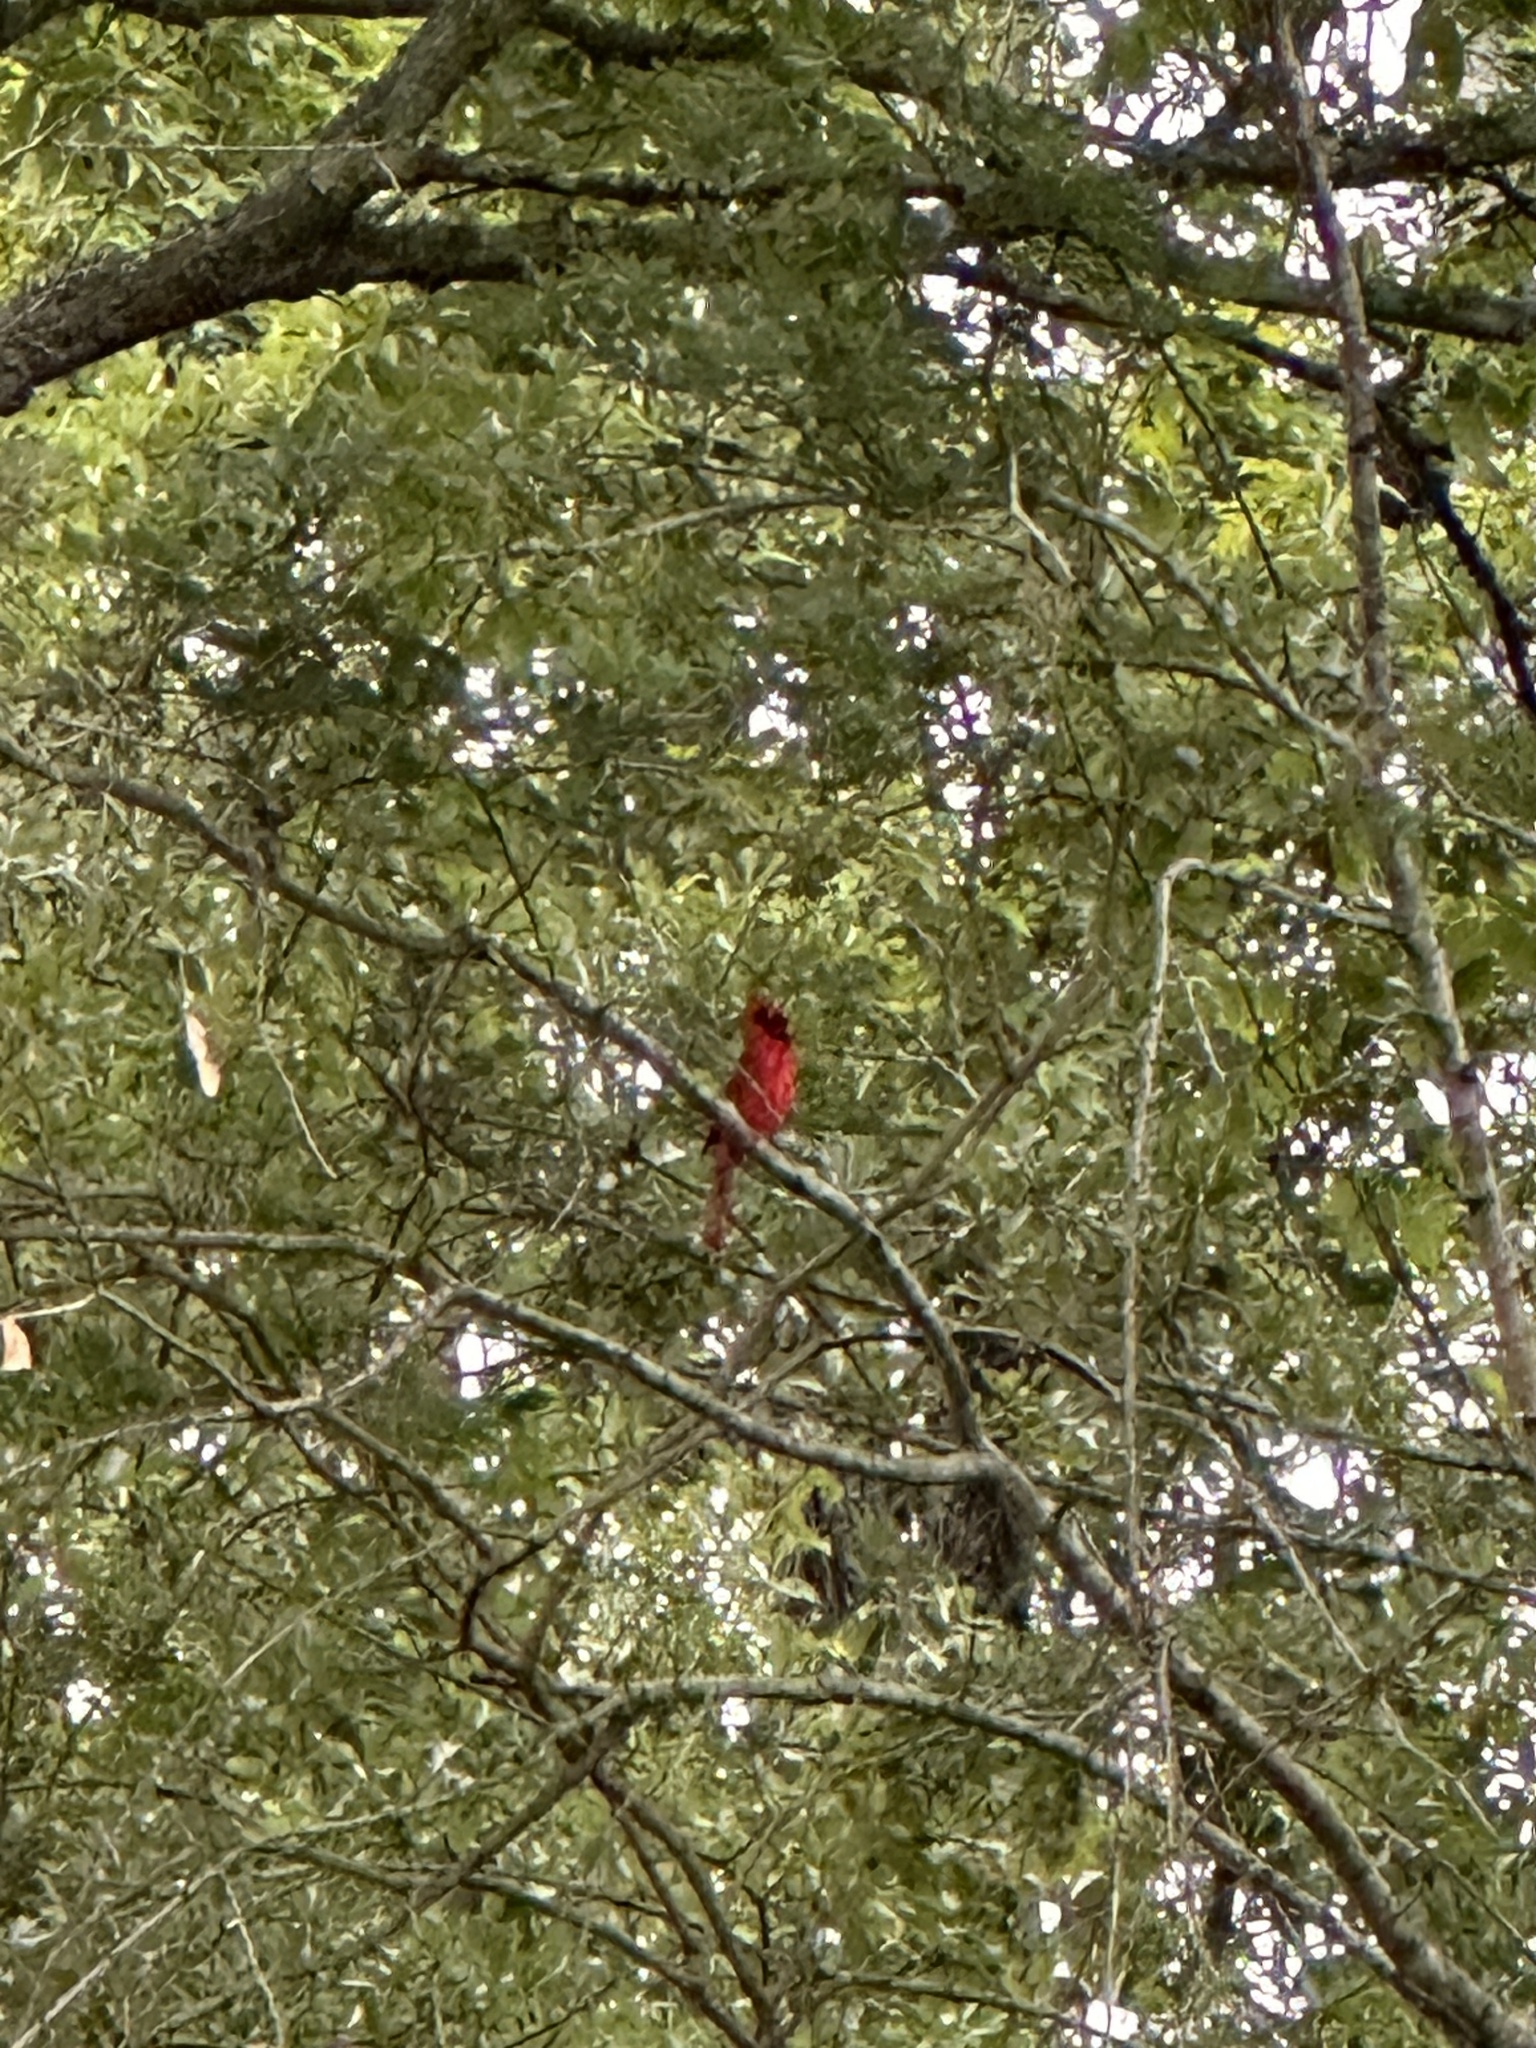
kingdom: Animalia
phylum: Chordata
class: Aves
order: Passeriformes
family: Cardinalidae
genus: Cardinalis
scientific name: Cardinalis cardinalis
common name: Northern cardinal
